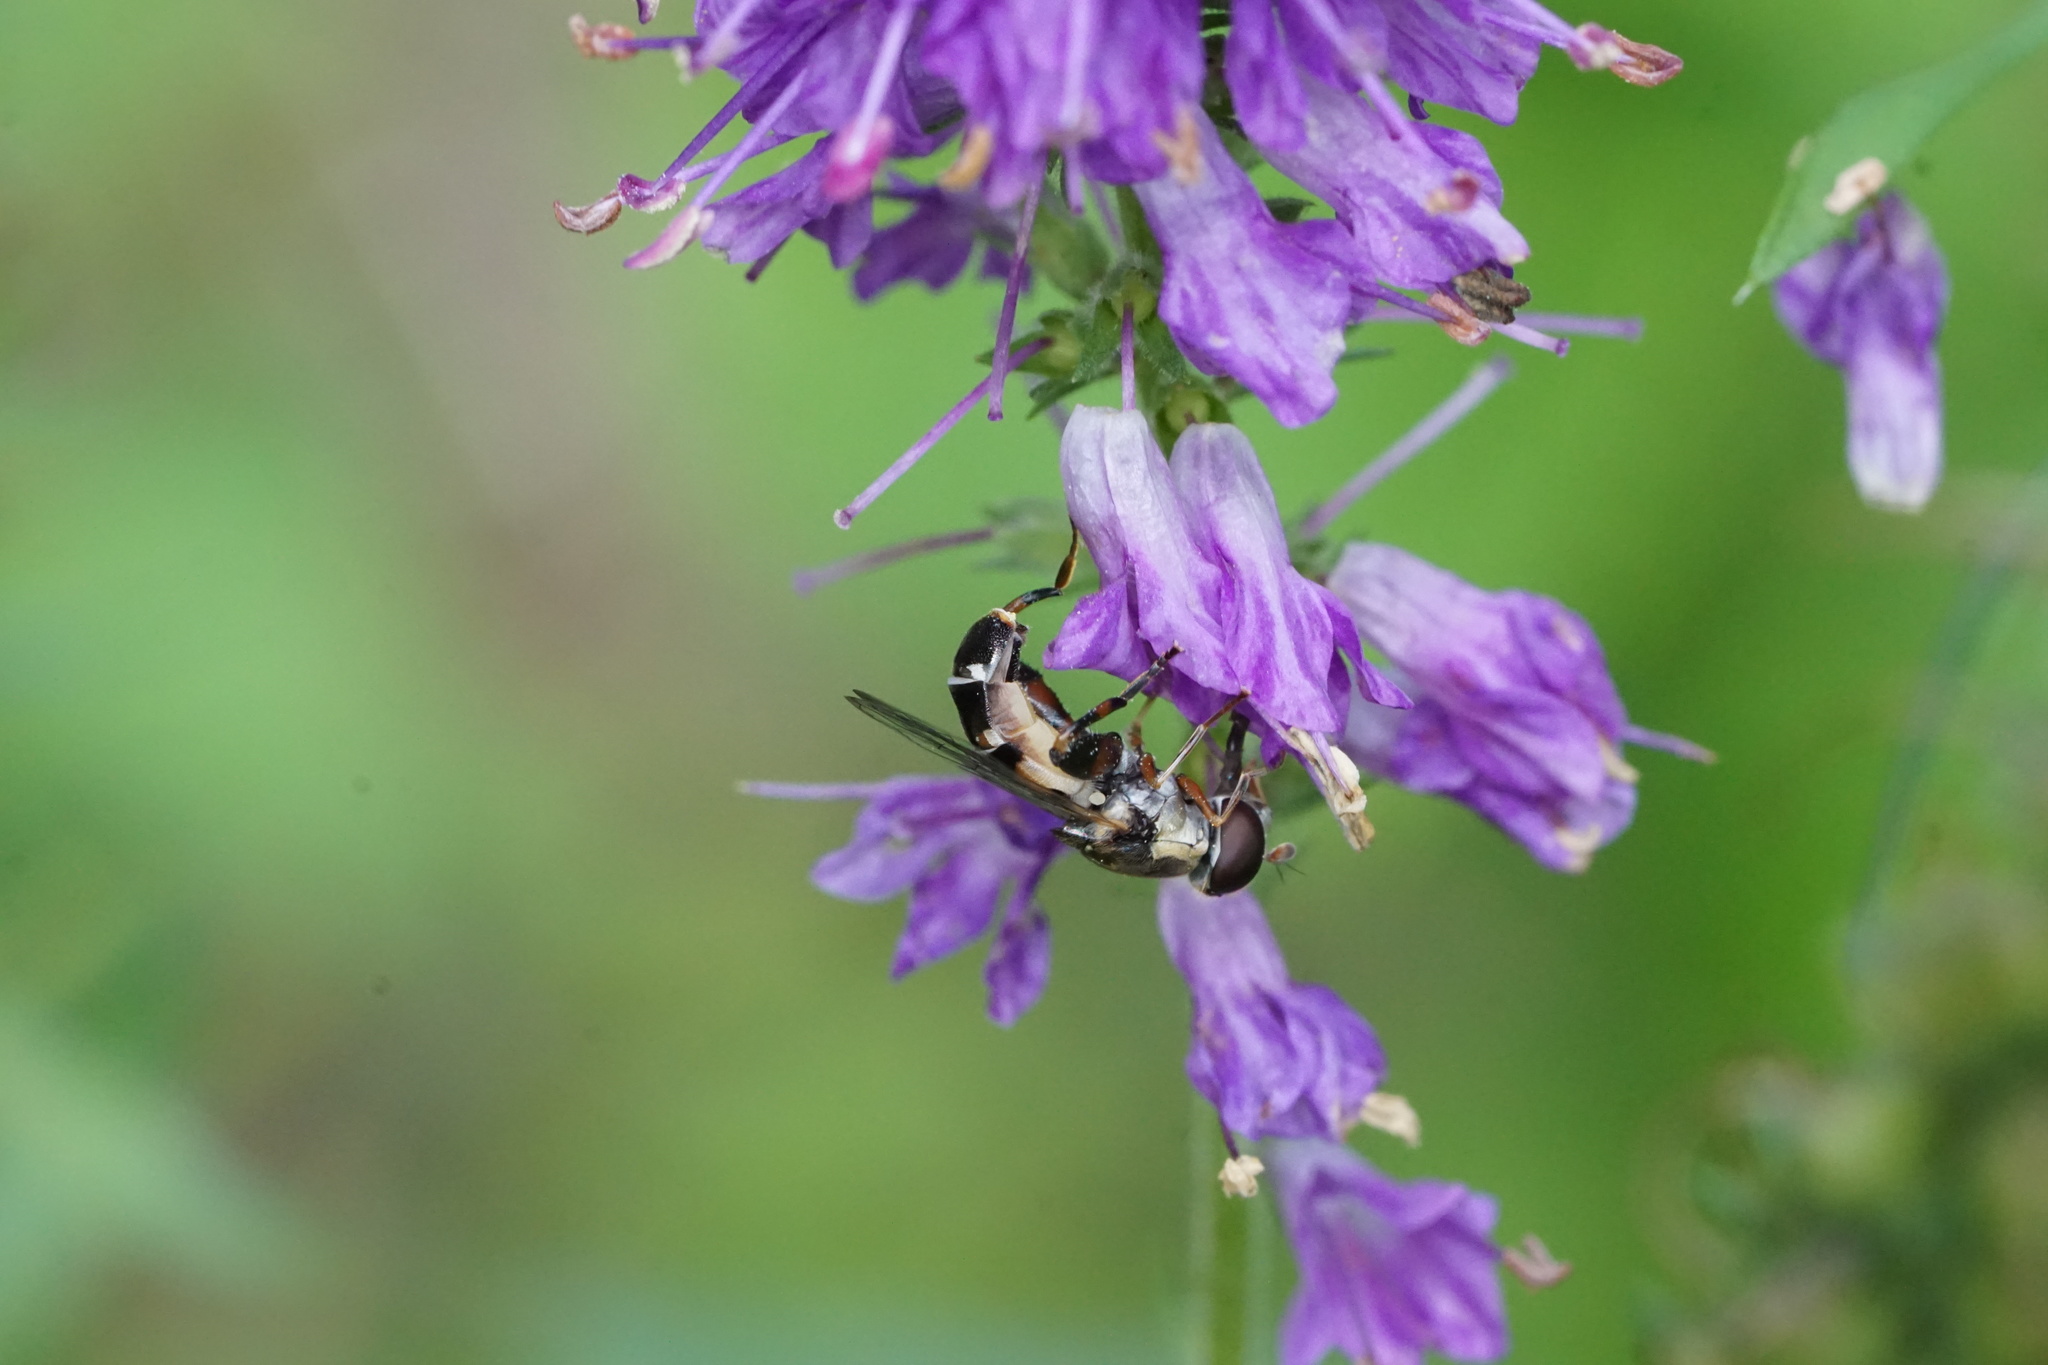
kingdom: Animalia
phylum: Arthropoda
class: Insecta
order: Diptera
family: Syrphidae
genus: Syritta
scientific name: Syritta pipiens
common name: Hover fly
